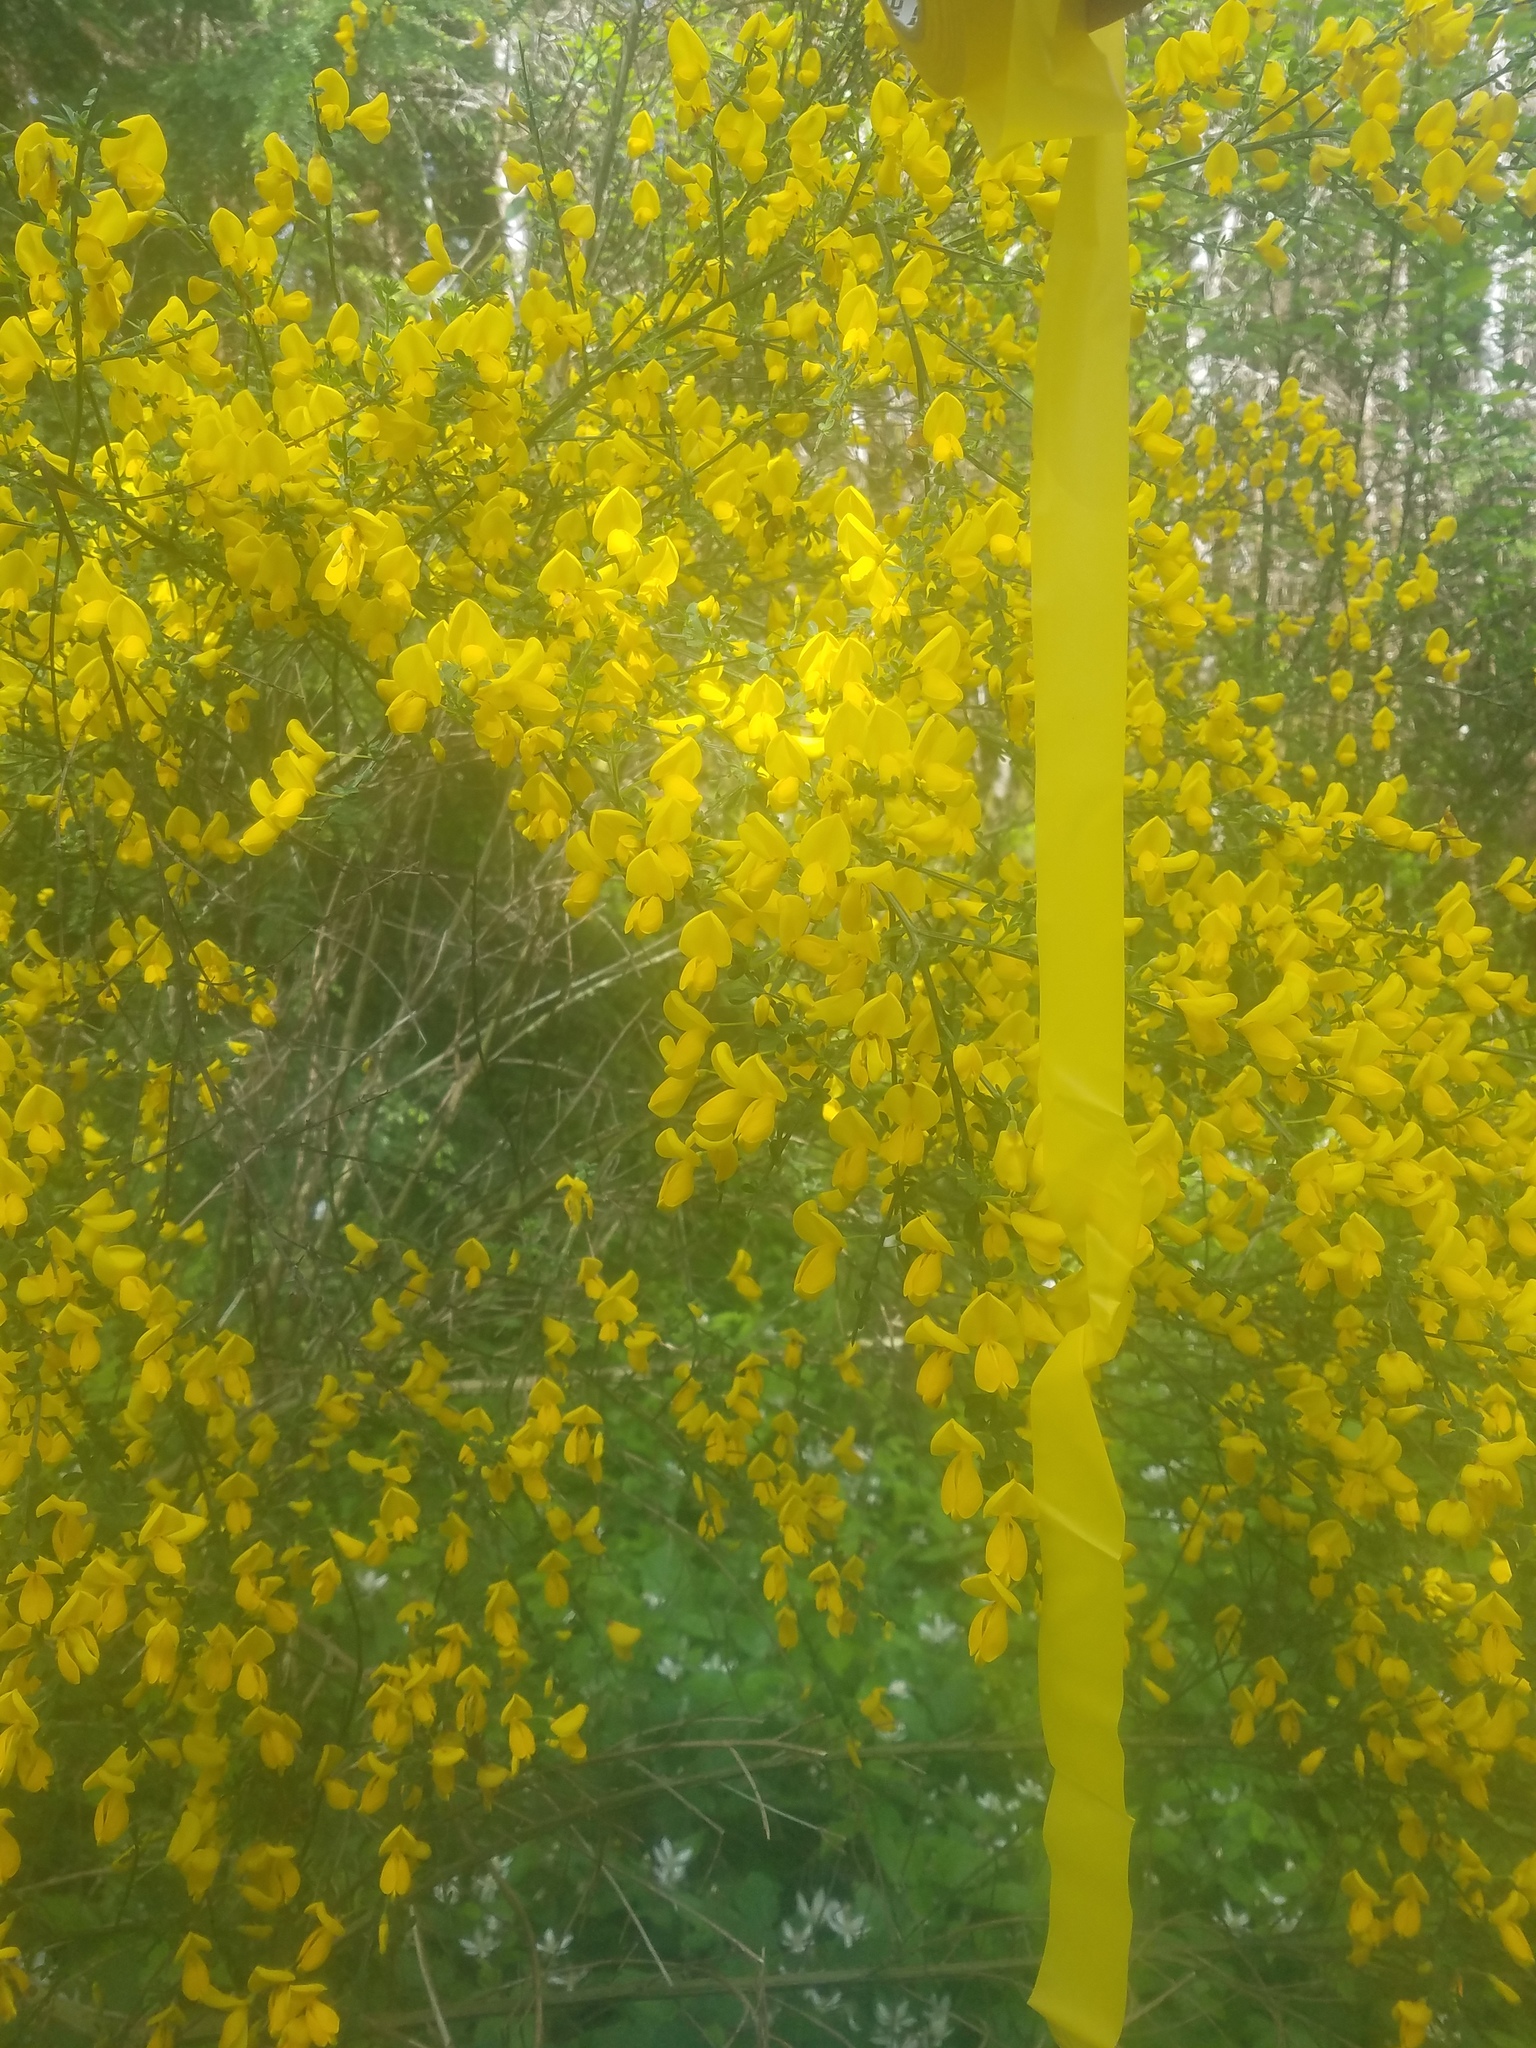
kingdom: Plantae
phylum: Tracheophyta
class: Magnoliopsida
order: Fabales
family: Fabaceae
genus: Cytisus
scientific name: Cytisus scoparius
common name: Scotch broom
